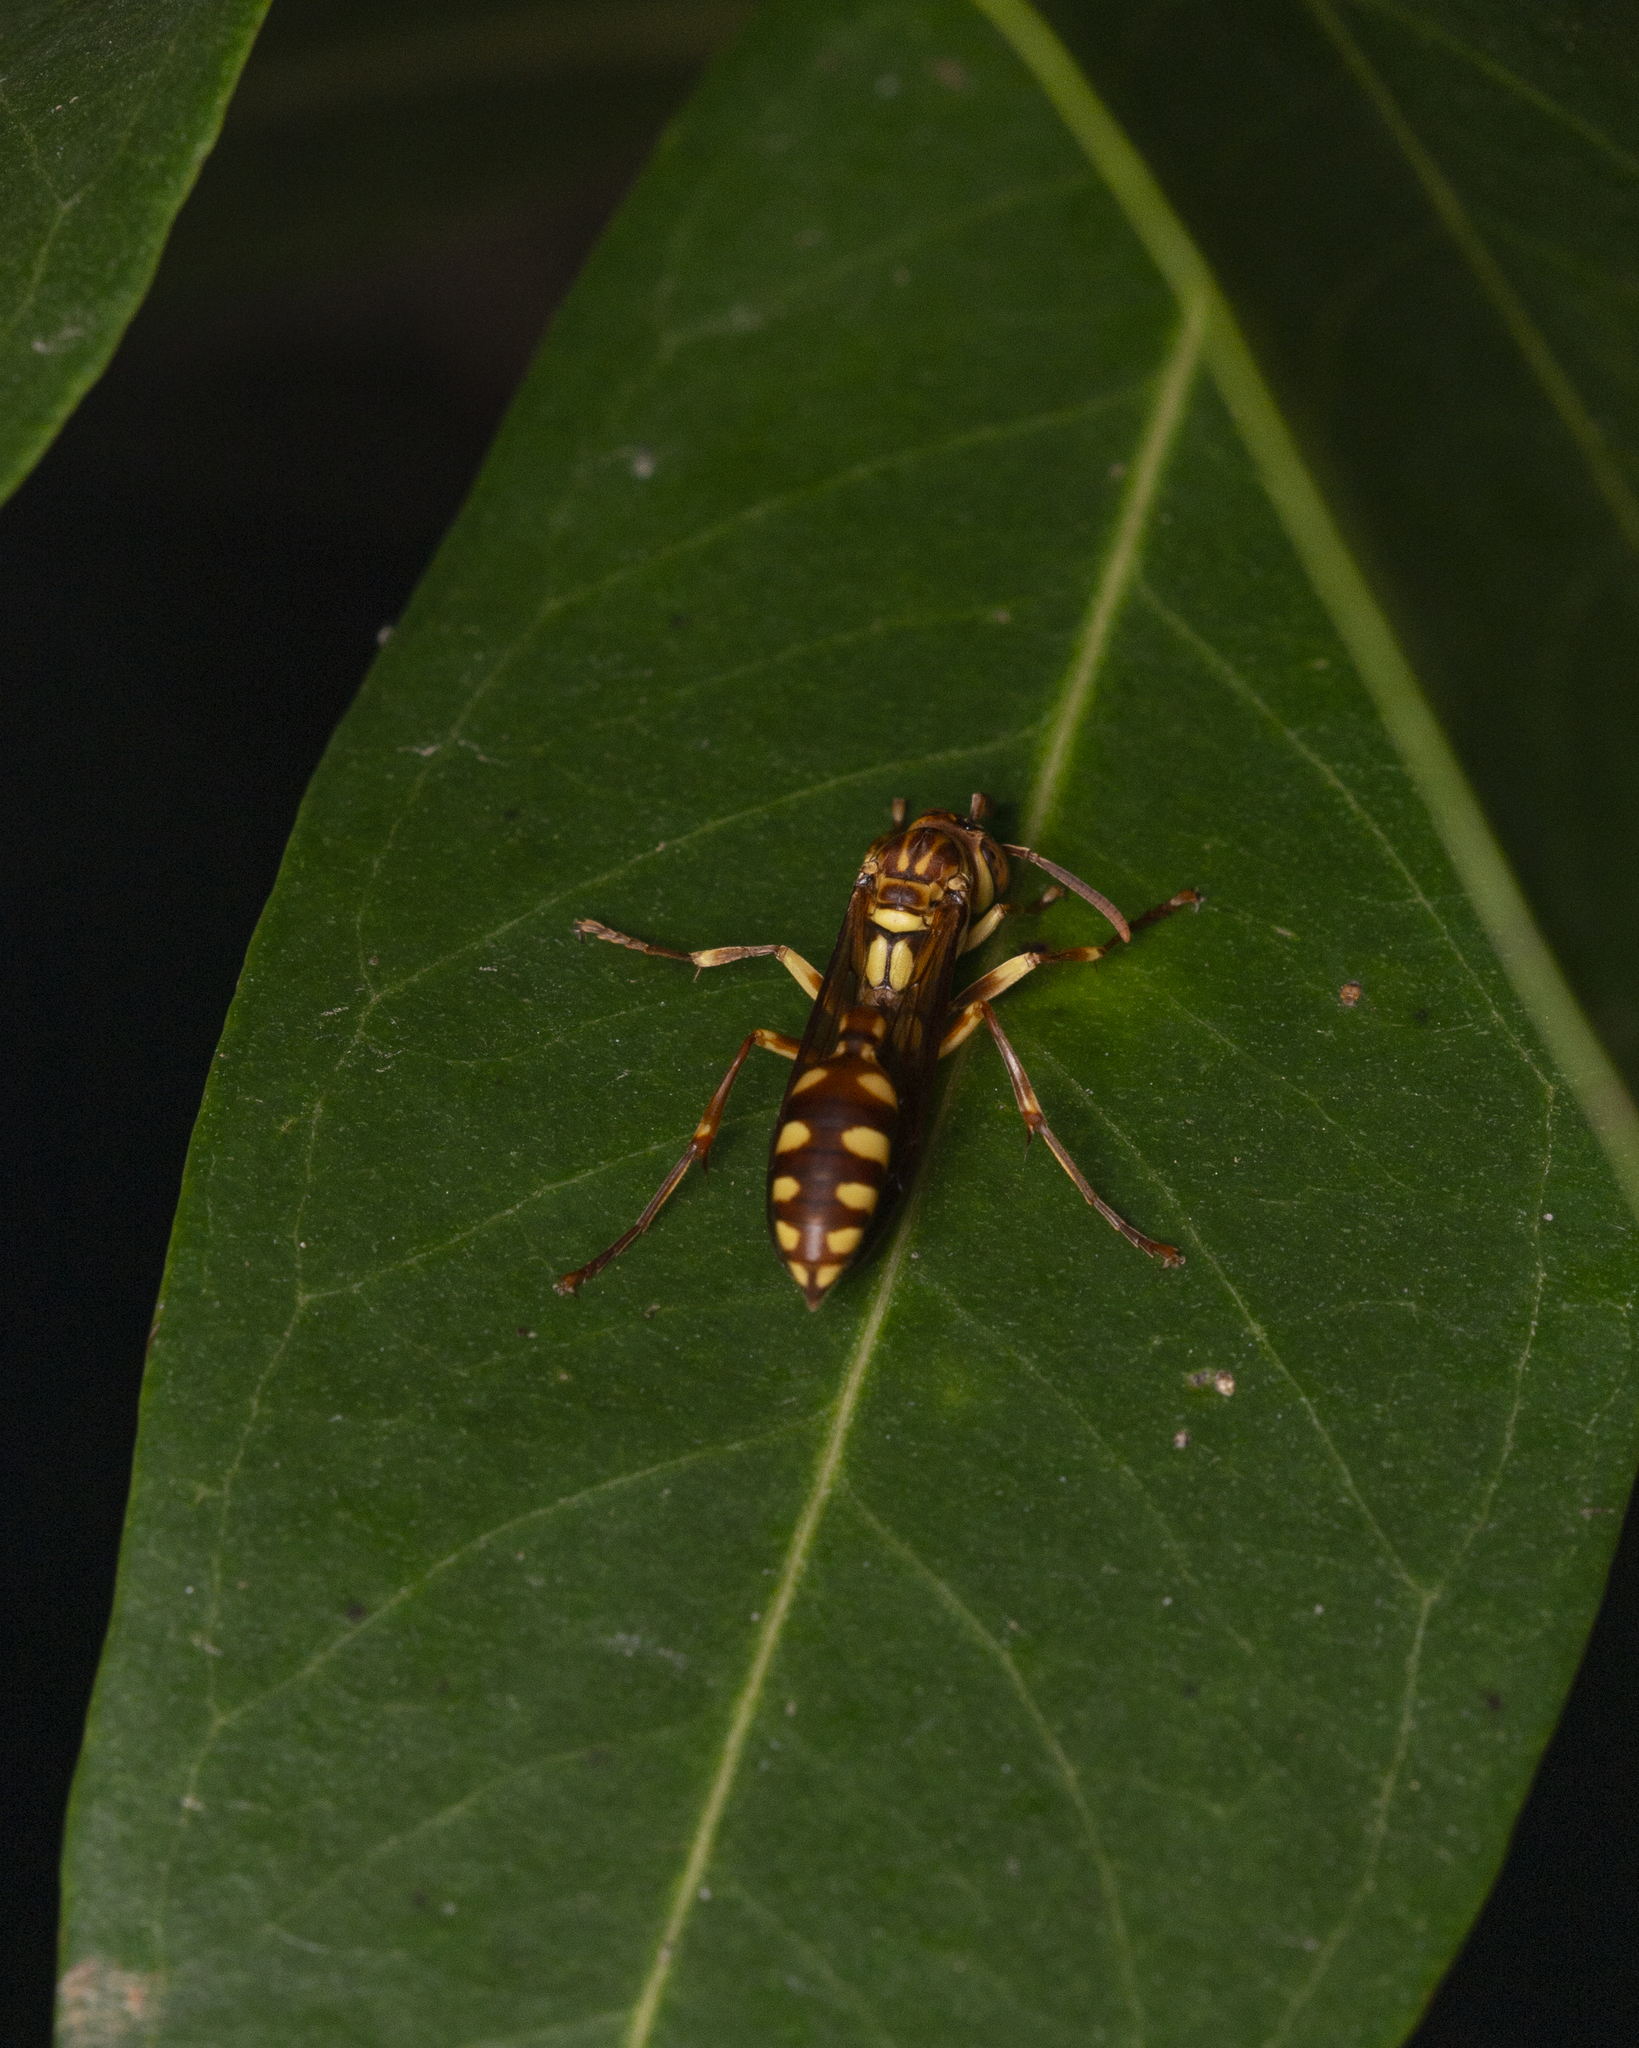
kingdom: Animalia
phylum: Arthropoda
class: Insecta
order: Hymenoptera
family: Vespidae
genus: Parapolybia
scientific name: Parapolybia varia
